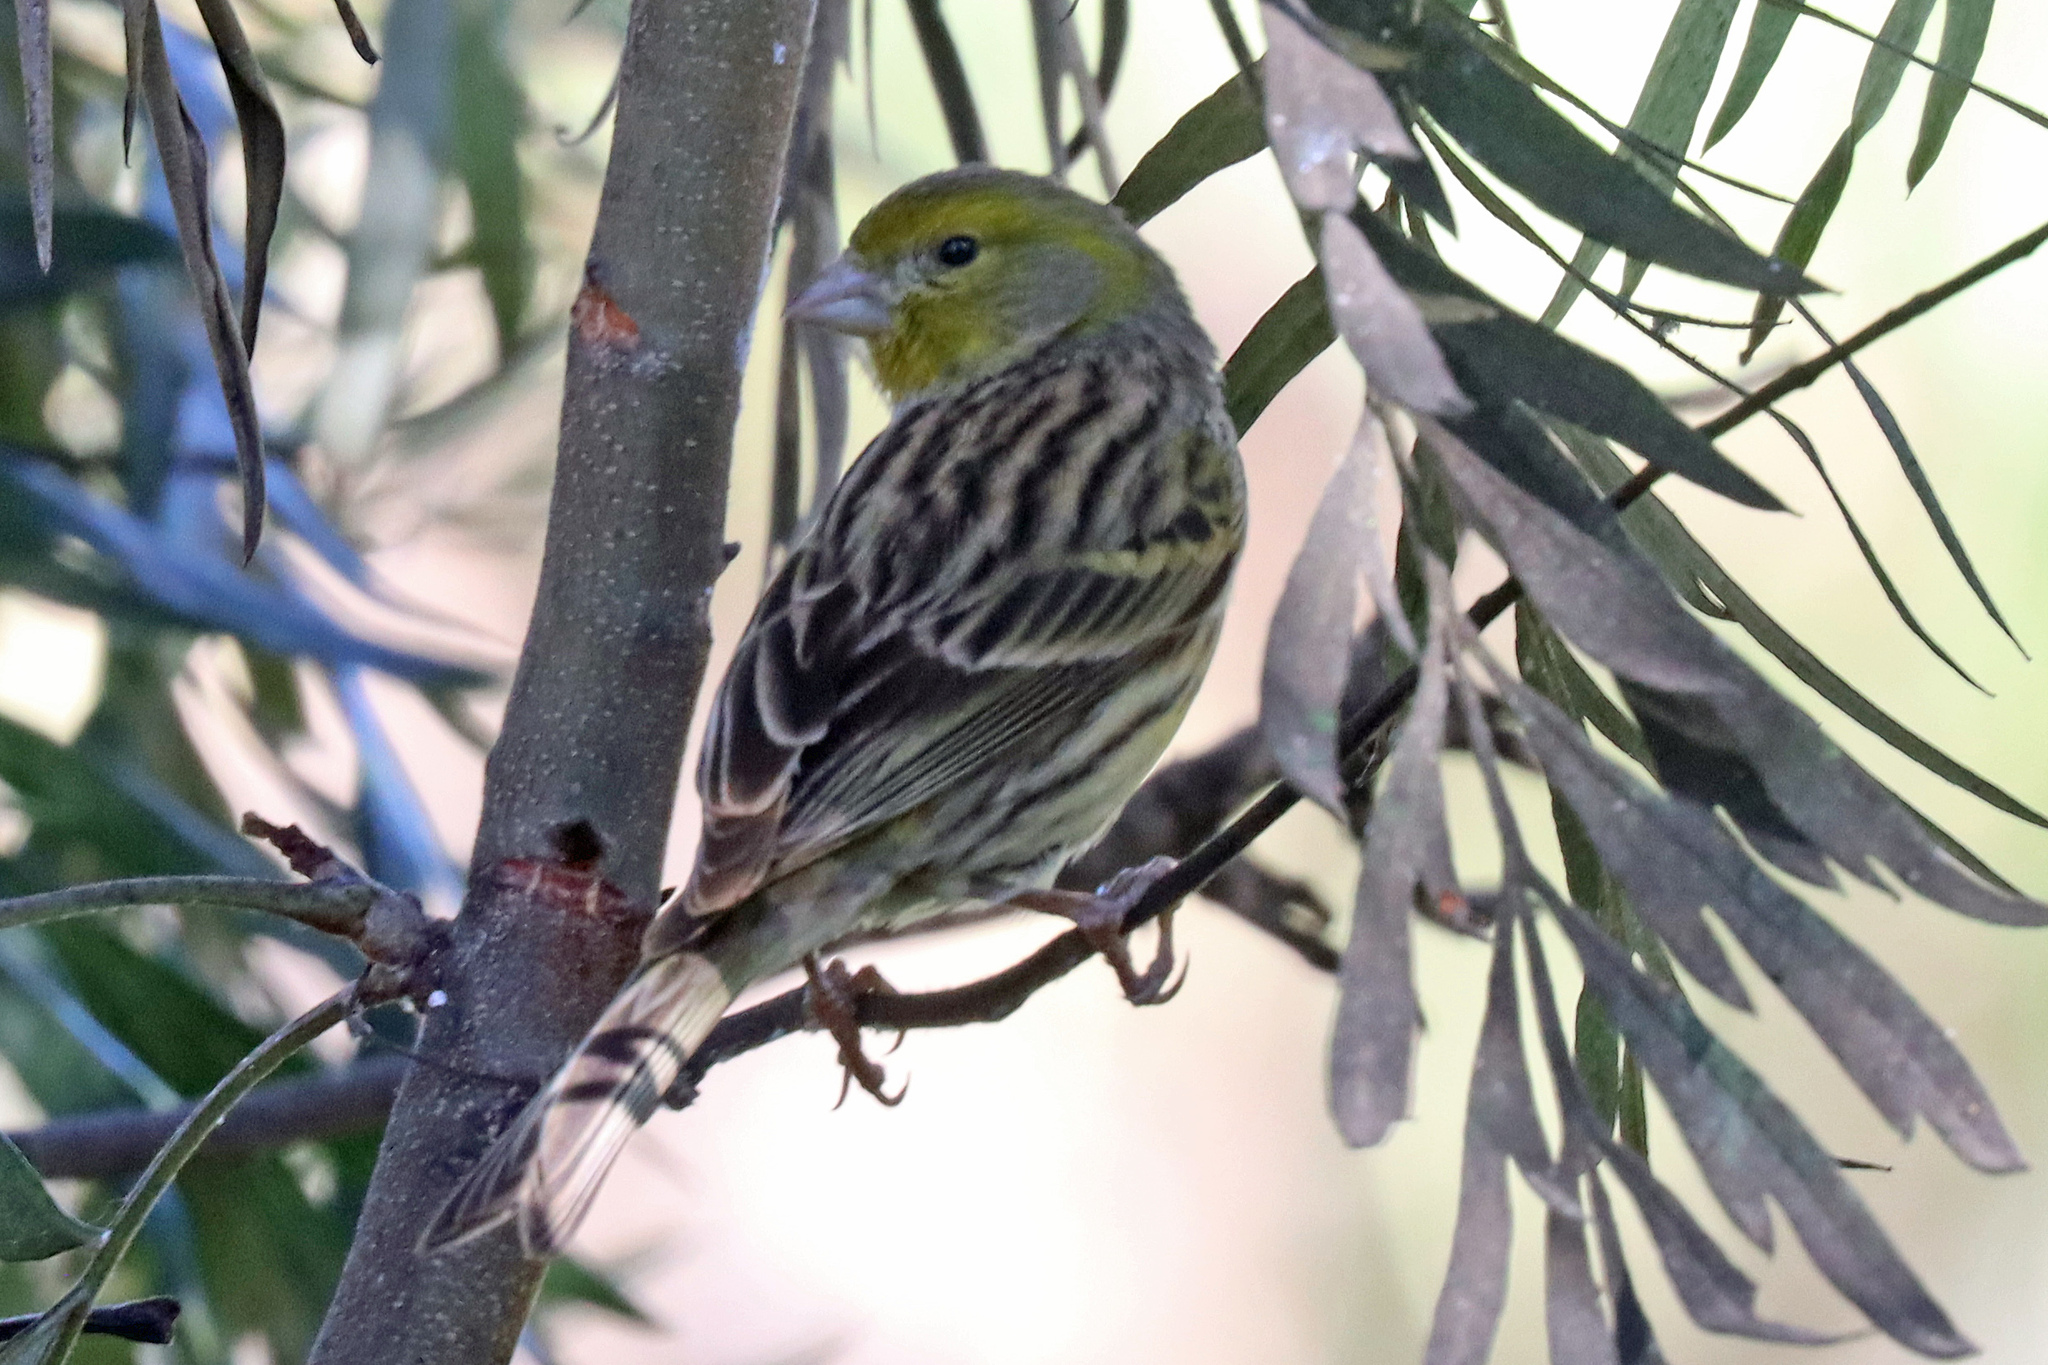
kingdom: Animalia
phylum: Chordata
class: Aves
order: Passeriformes
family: Fringillidae
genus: Serinus
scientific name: Serinus canaria
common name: Atlantic canary
